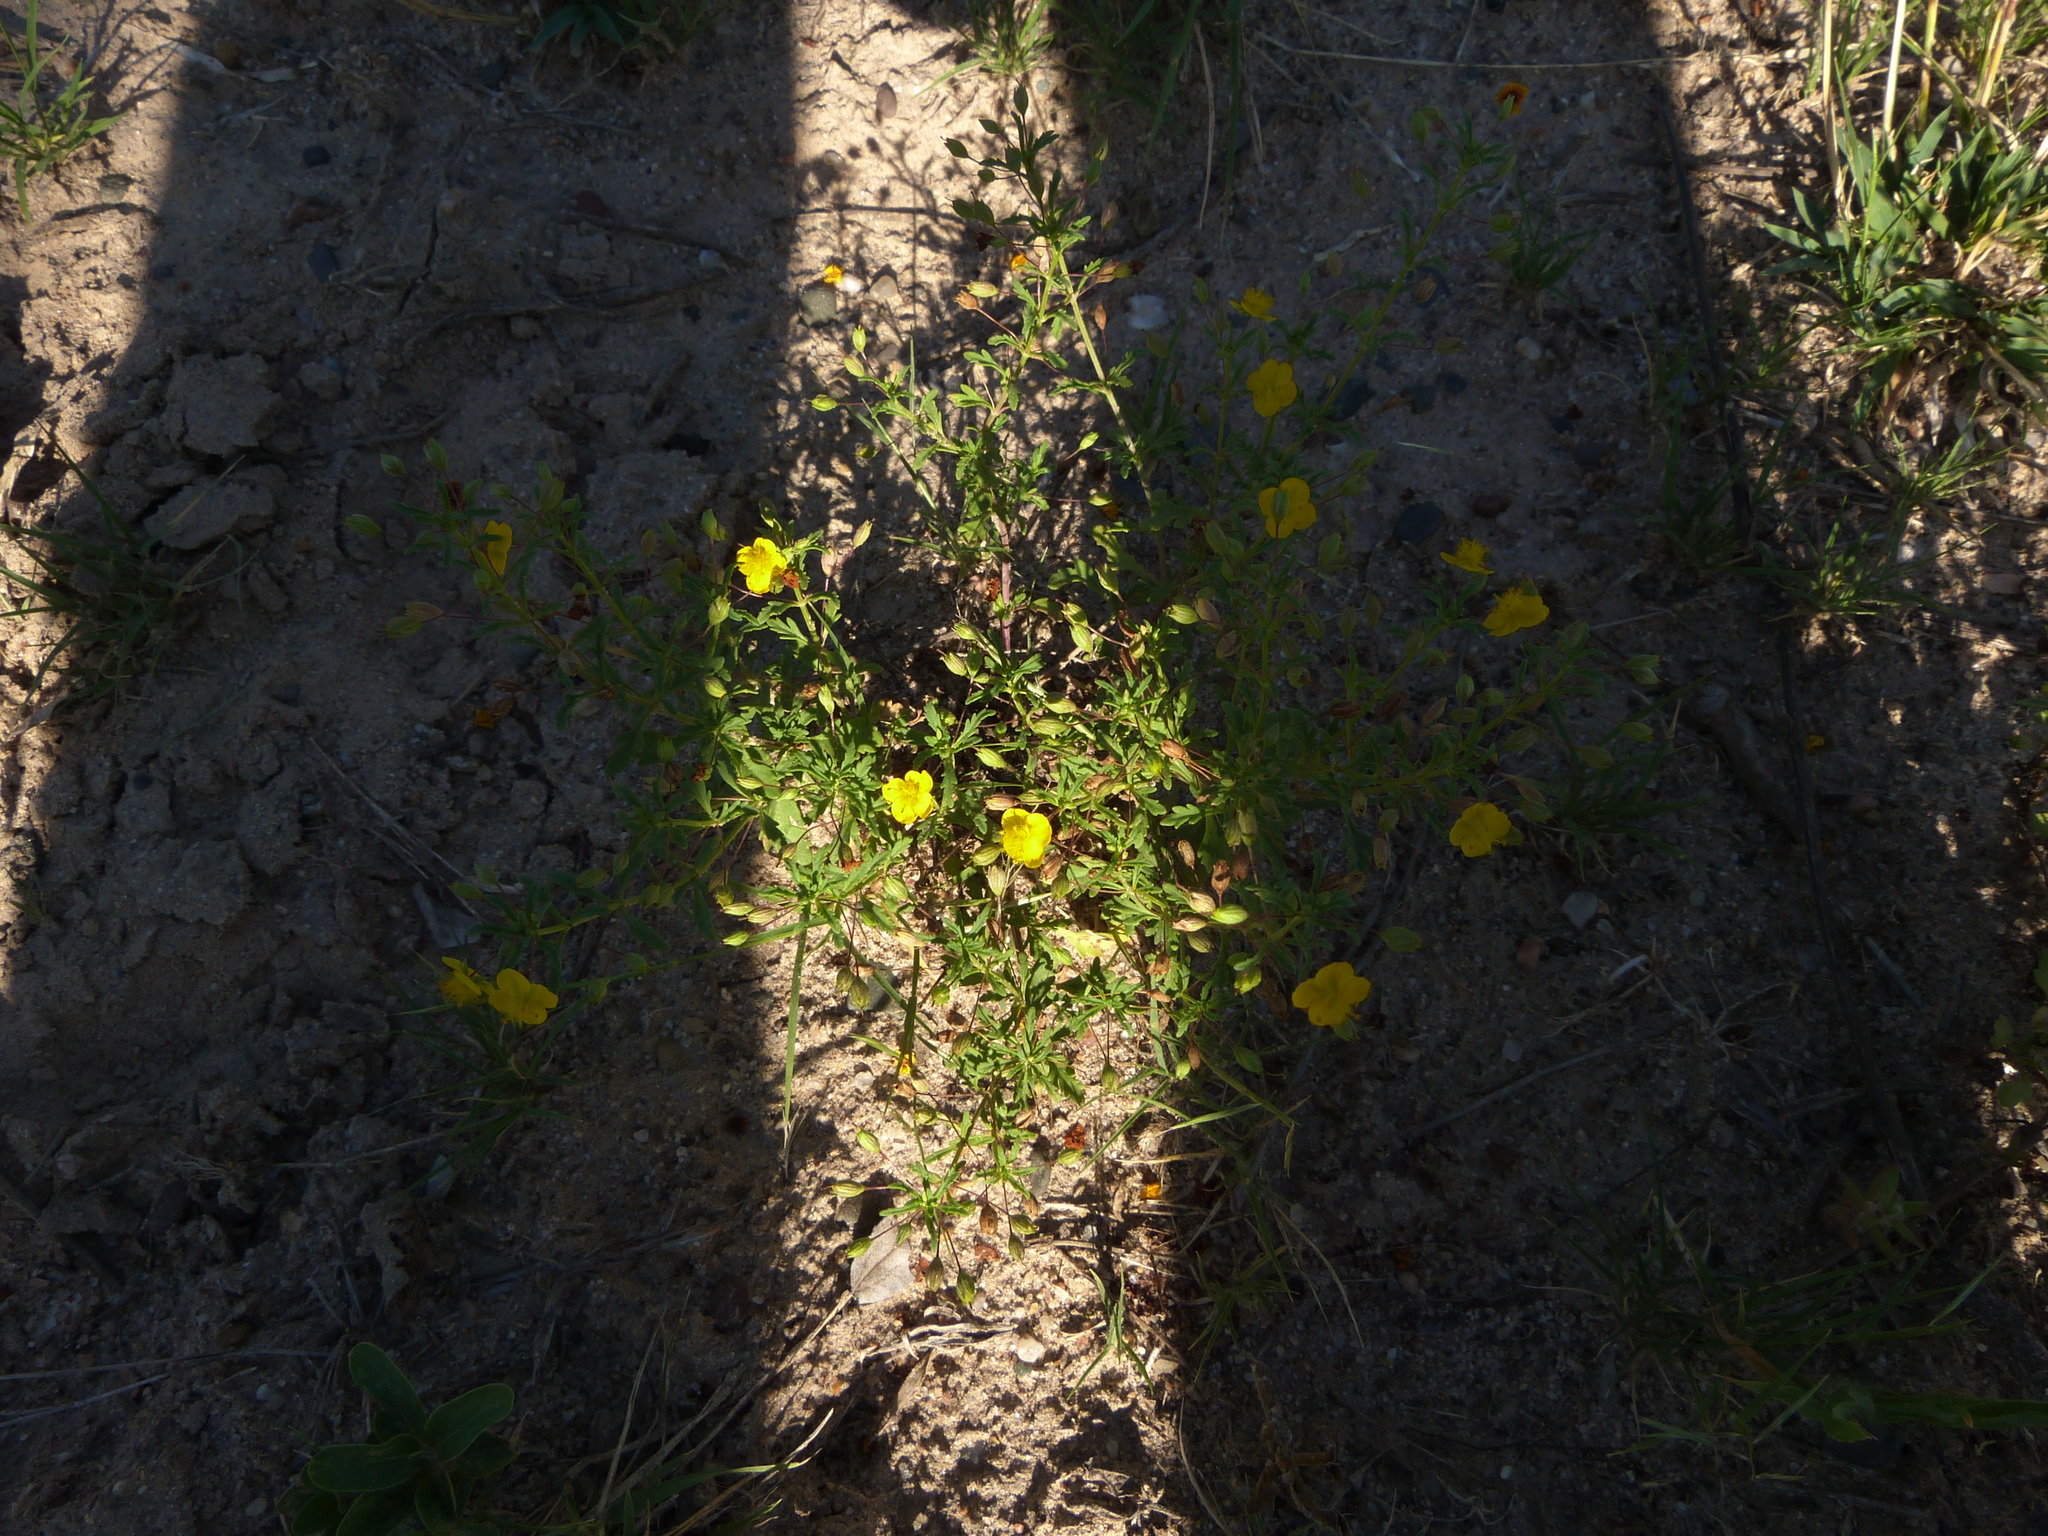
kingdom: Plantae
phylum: Tracheophyta
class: Magnoliopsida
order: Lamiales
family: Plantaginaceae
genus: Scoparia
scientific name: Scoparia montevidensis
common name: Broomwort
